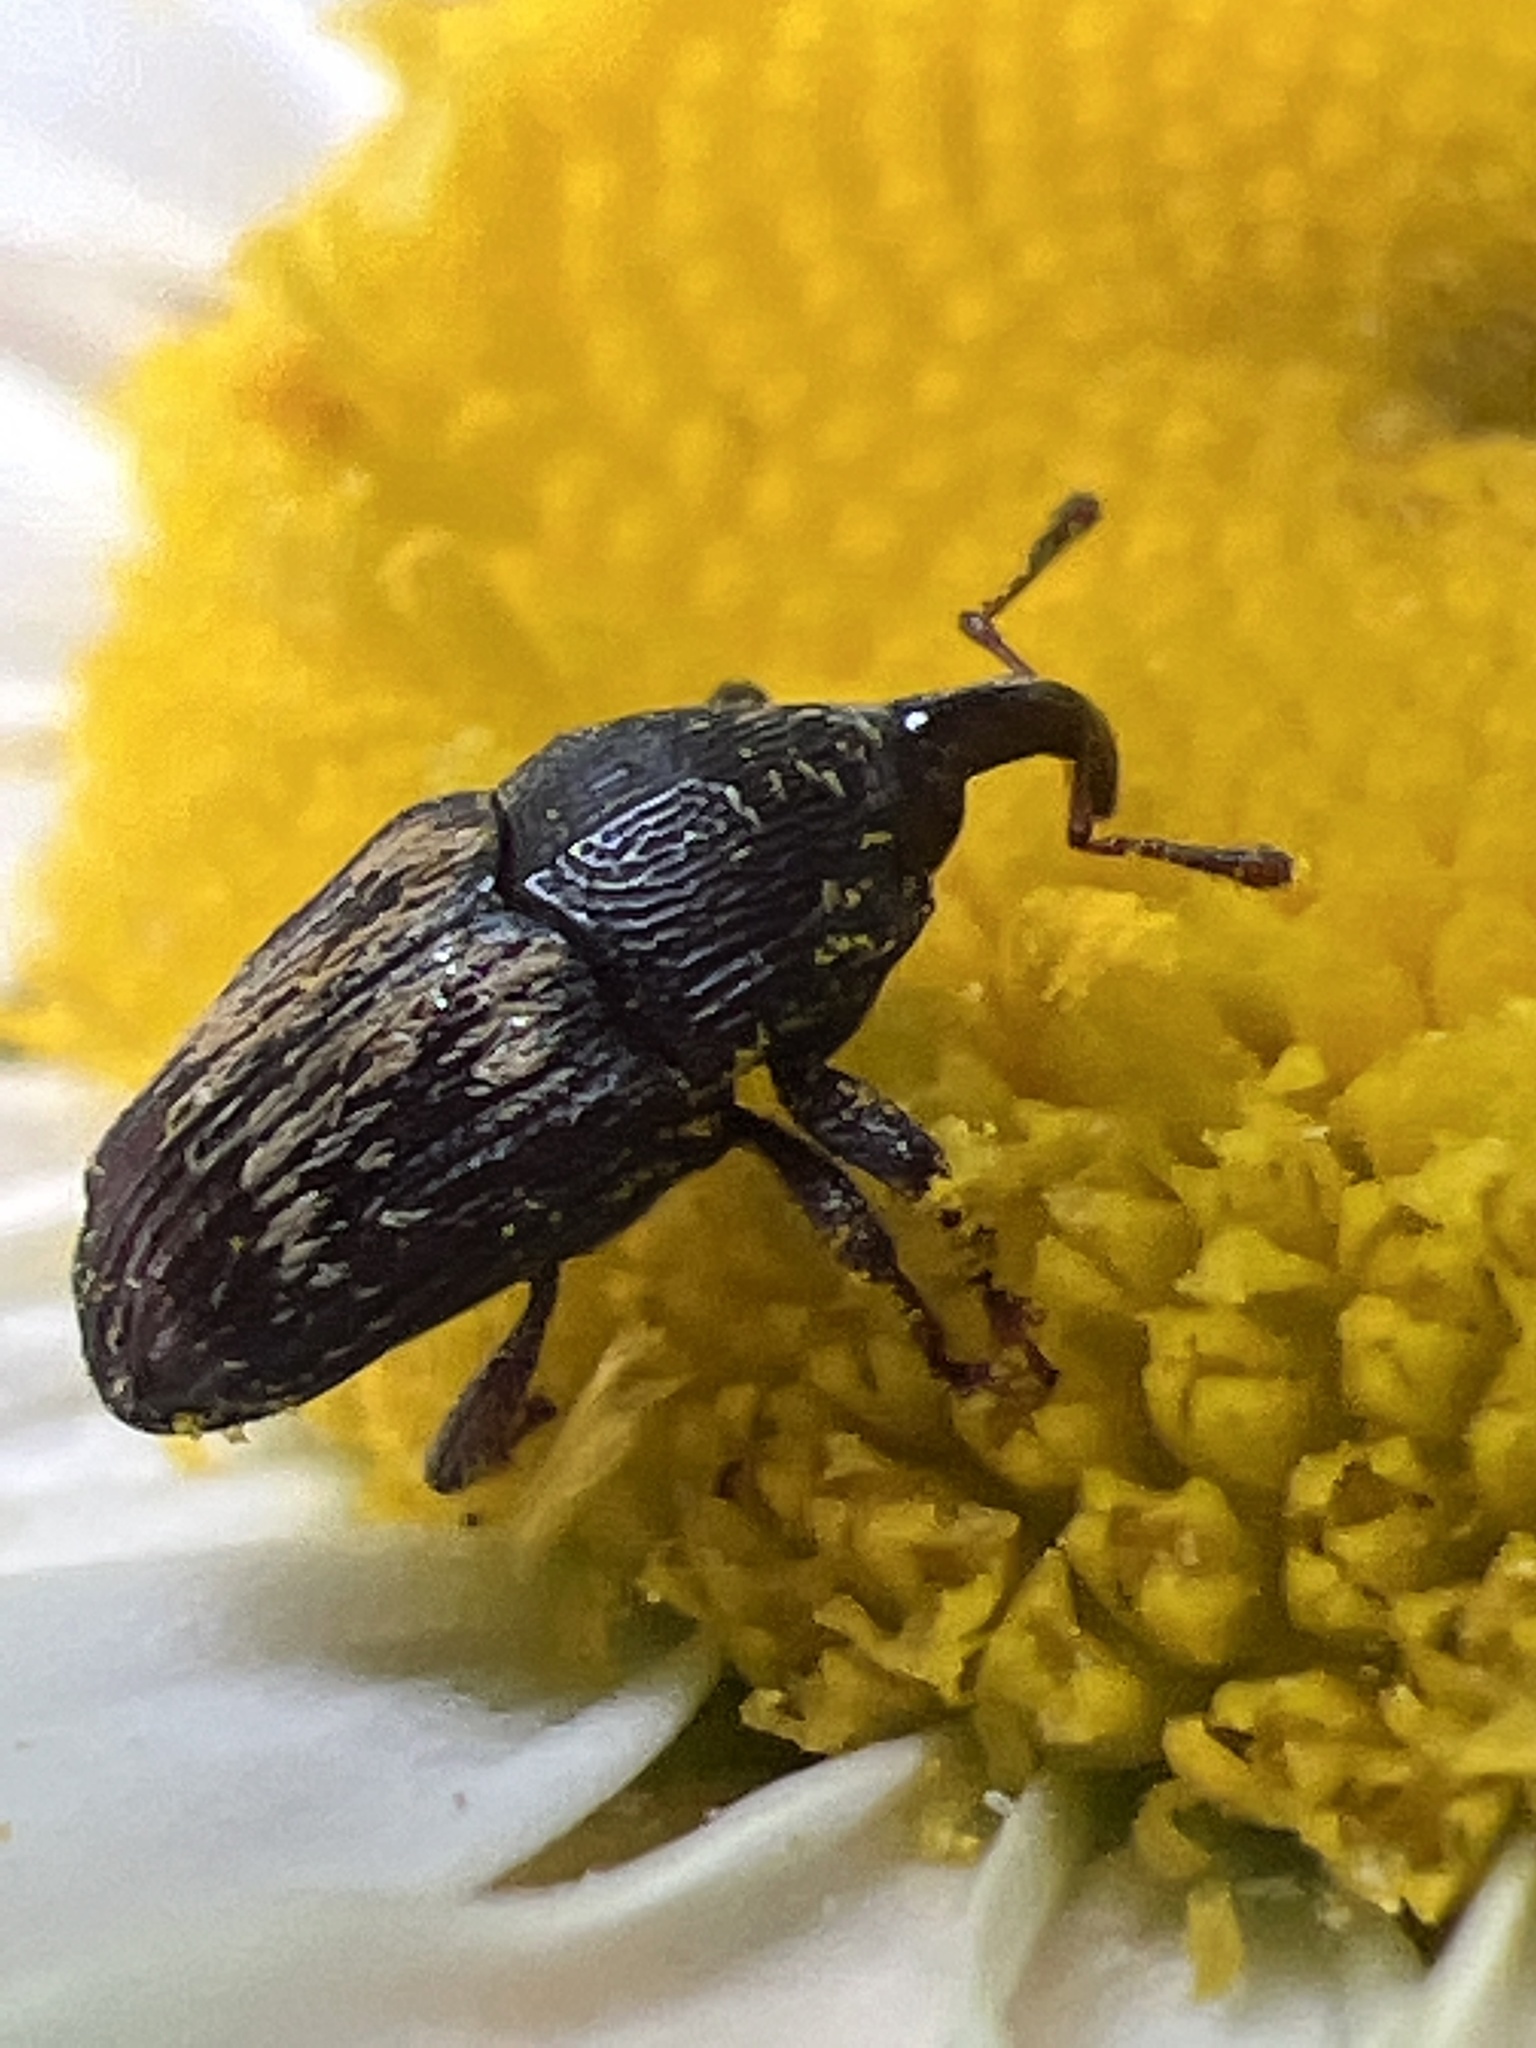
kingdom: Animalia
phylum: Arthropoda
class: Insecta
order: Coleoptera
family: Curculionidae
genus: Glyptobaris
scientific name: Glyptobaris lecontei
